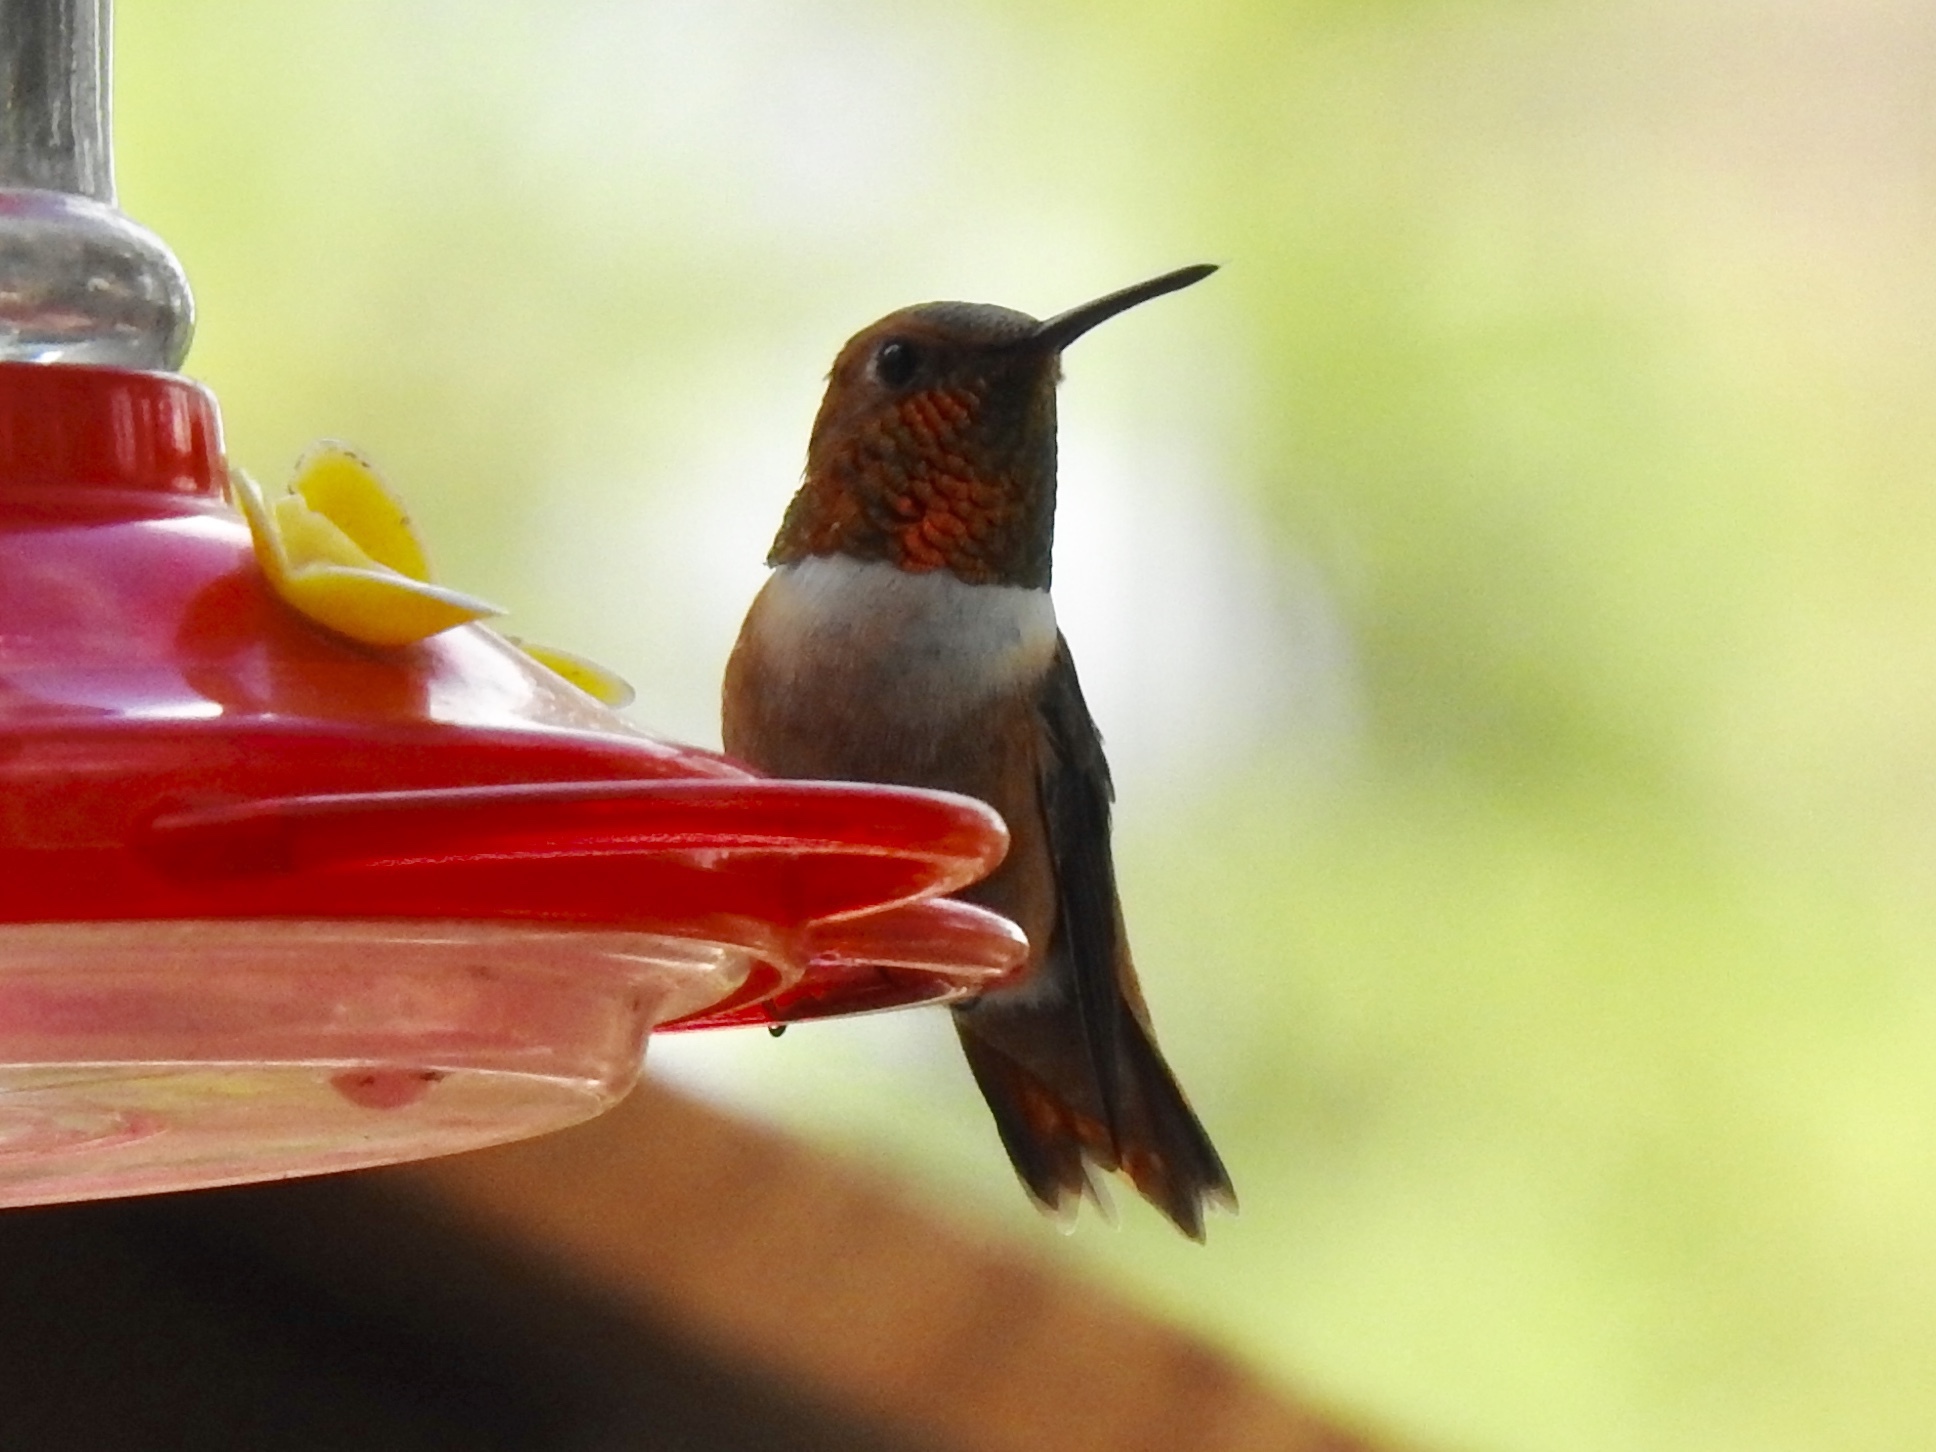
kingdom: Animalia
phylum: Chordata
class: Aves
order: Apodiformes
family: Trochilidae
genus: Selasphorus
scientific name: Selasphorus rufus
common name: Rufous hummingbird
